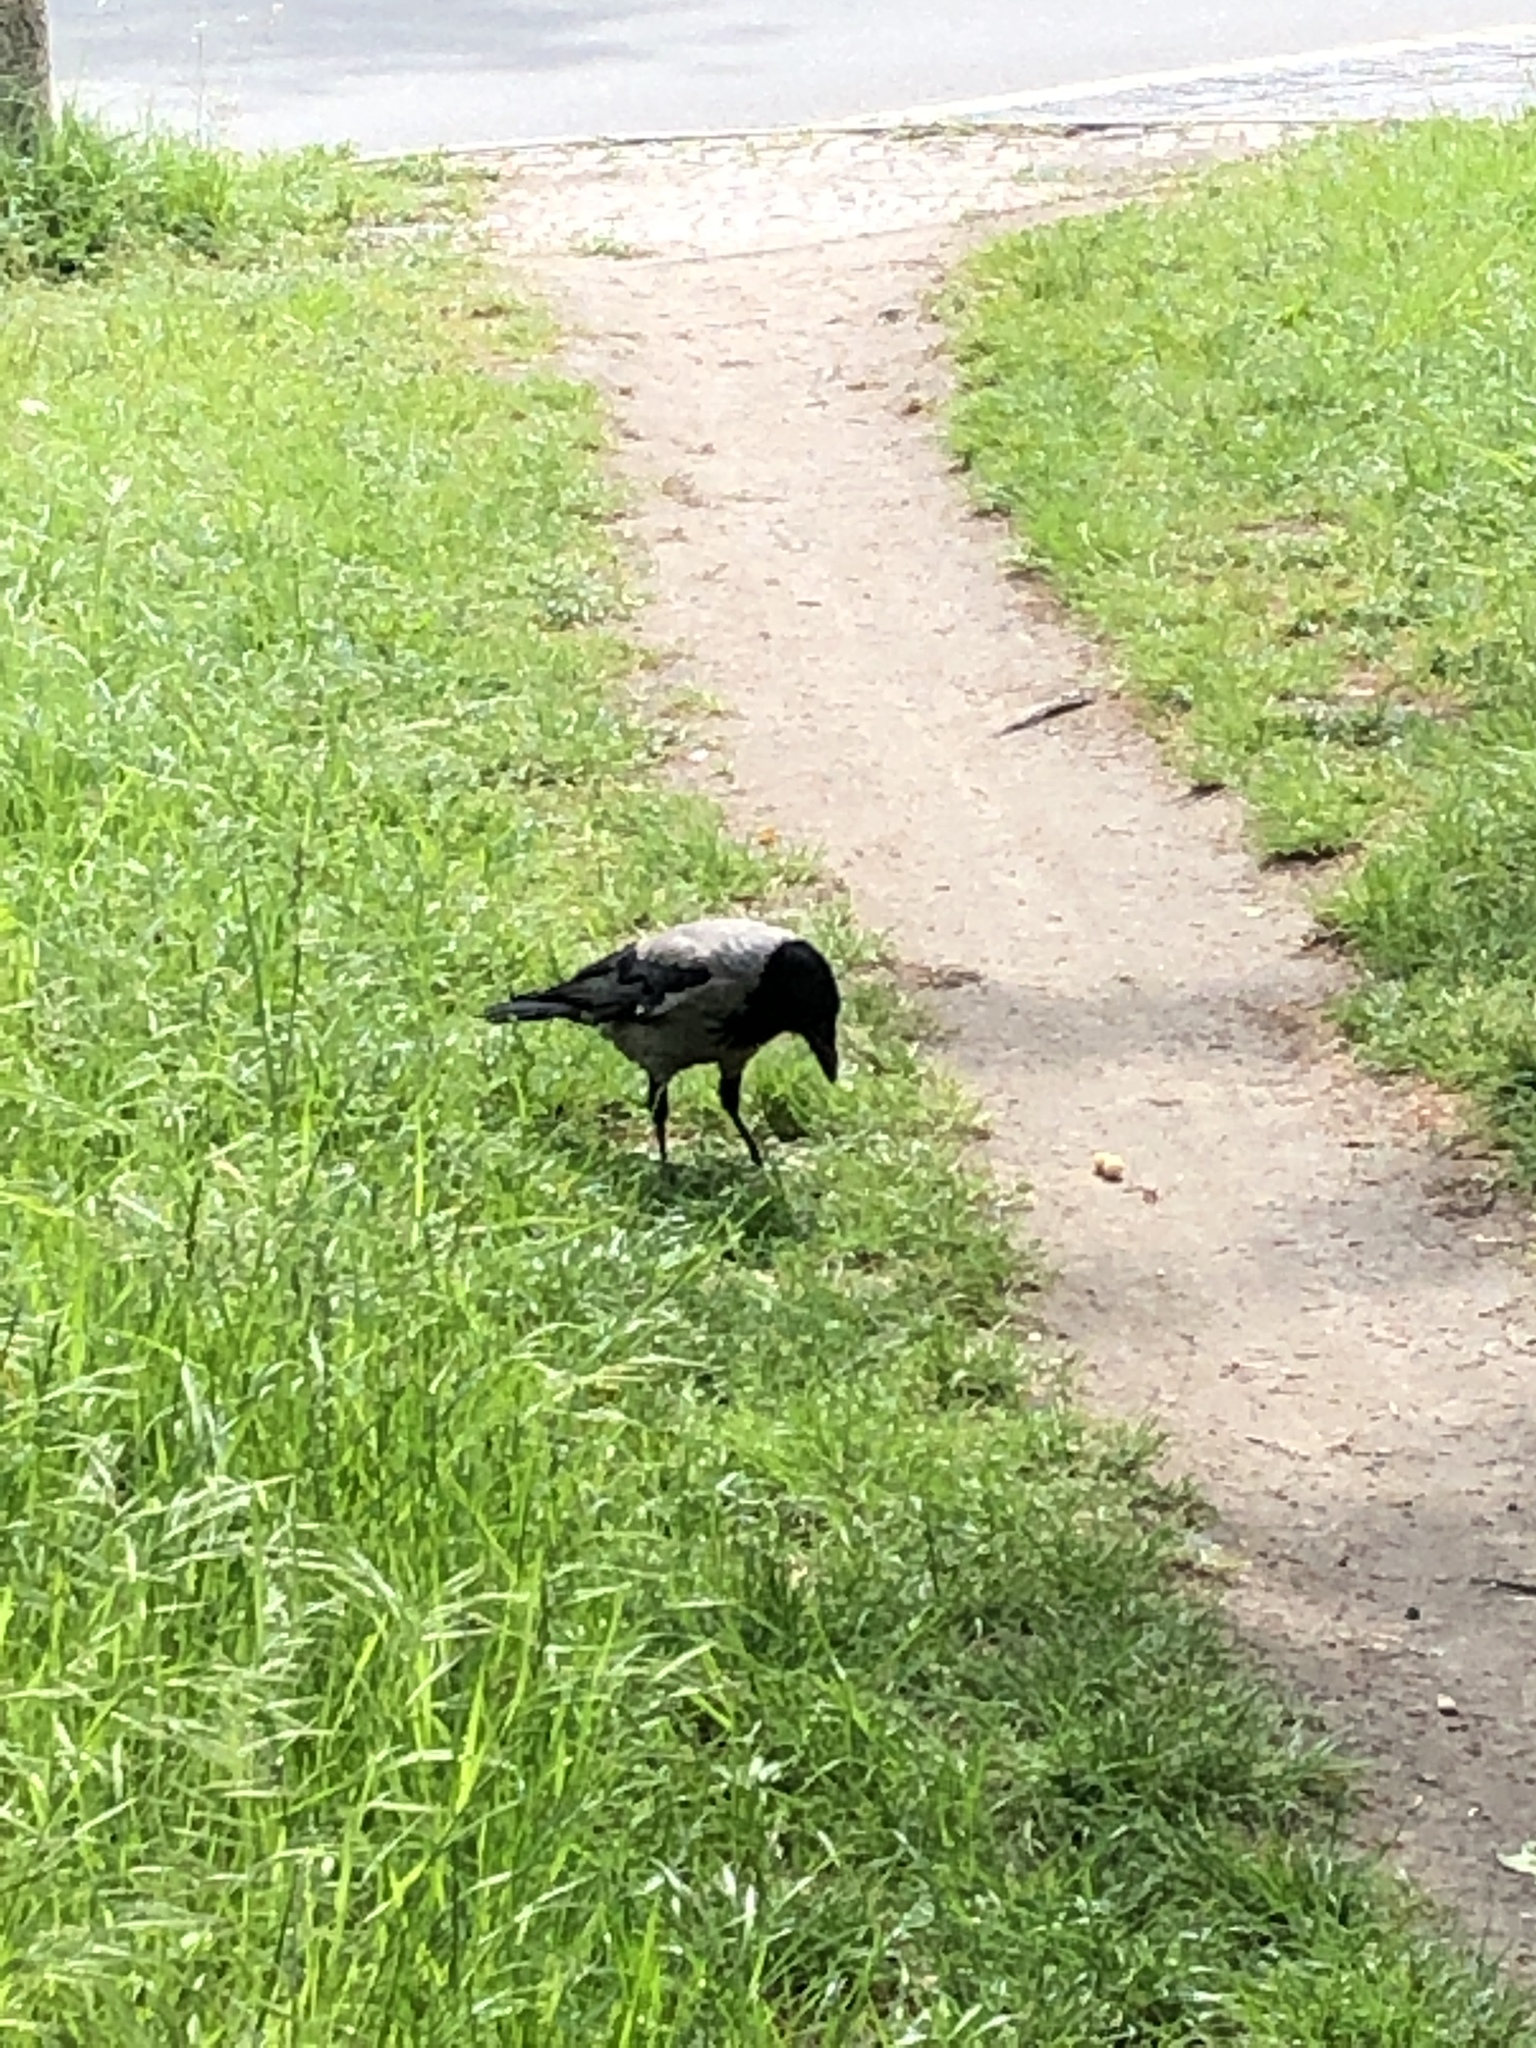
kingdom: Animalia
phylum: Chordata
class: Aves
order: Passeriformes
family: Corvidae
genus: Corvus
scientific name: Corvus cornix
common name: Hooded crow
